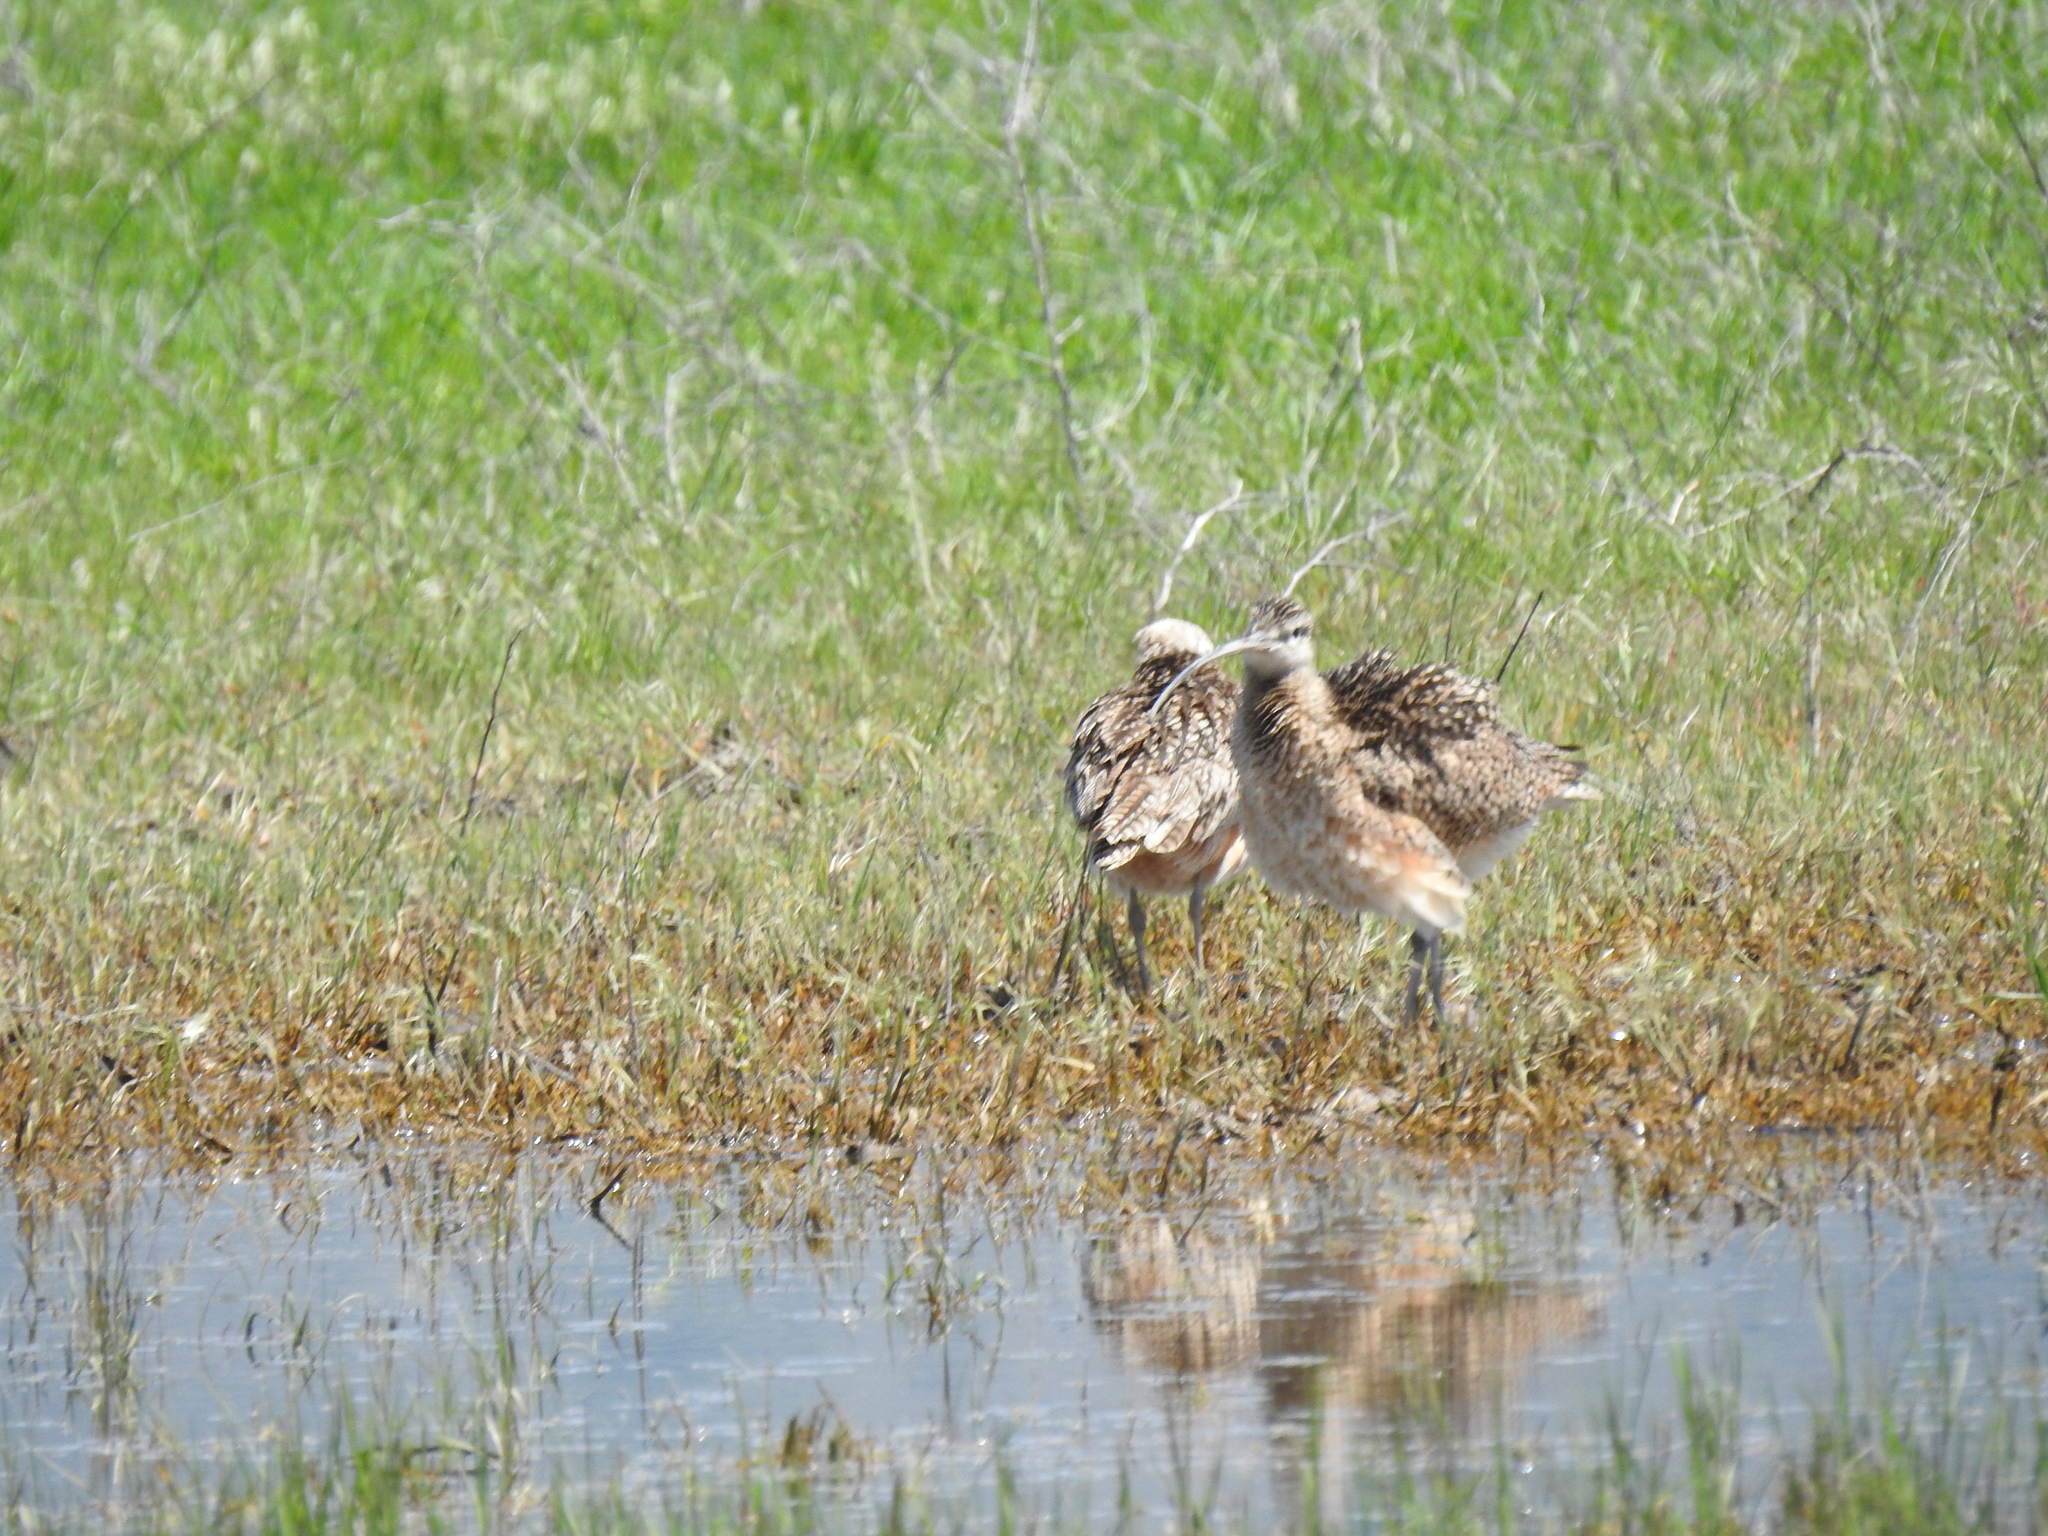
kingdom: Animalia
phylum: Chordata
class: Aves
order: Charadriiformes
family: Scolopacidae
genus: Numenius
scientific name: Numenius americanus
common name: Long-billed curlew
